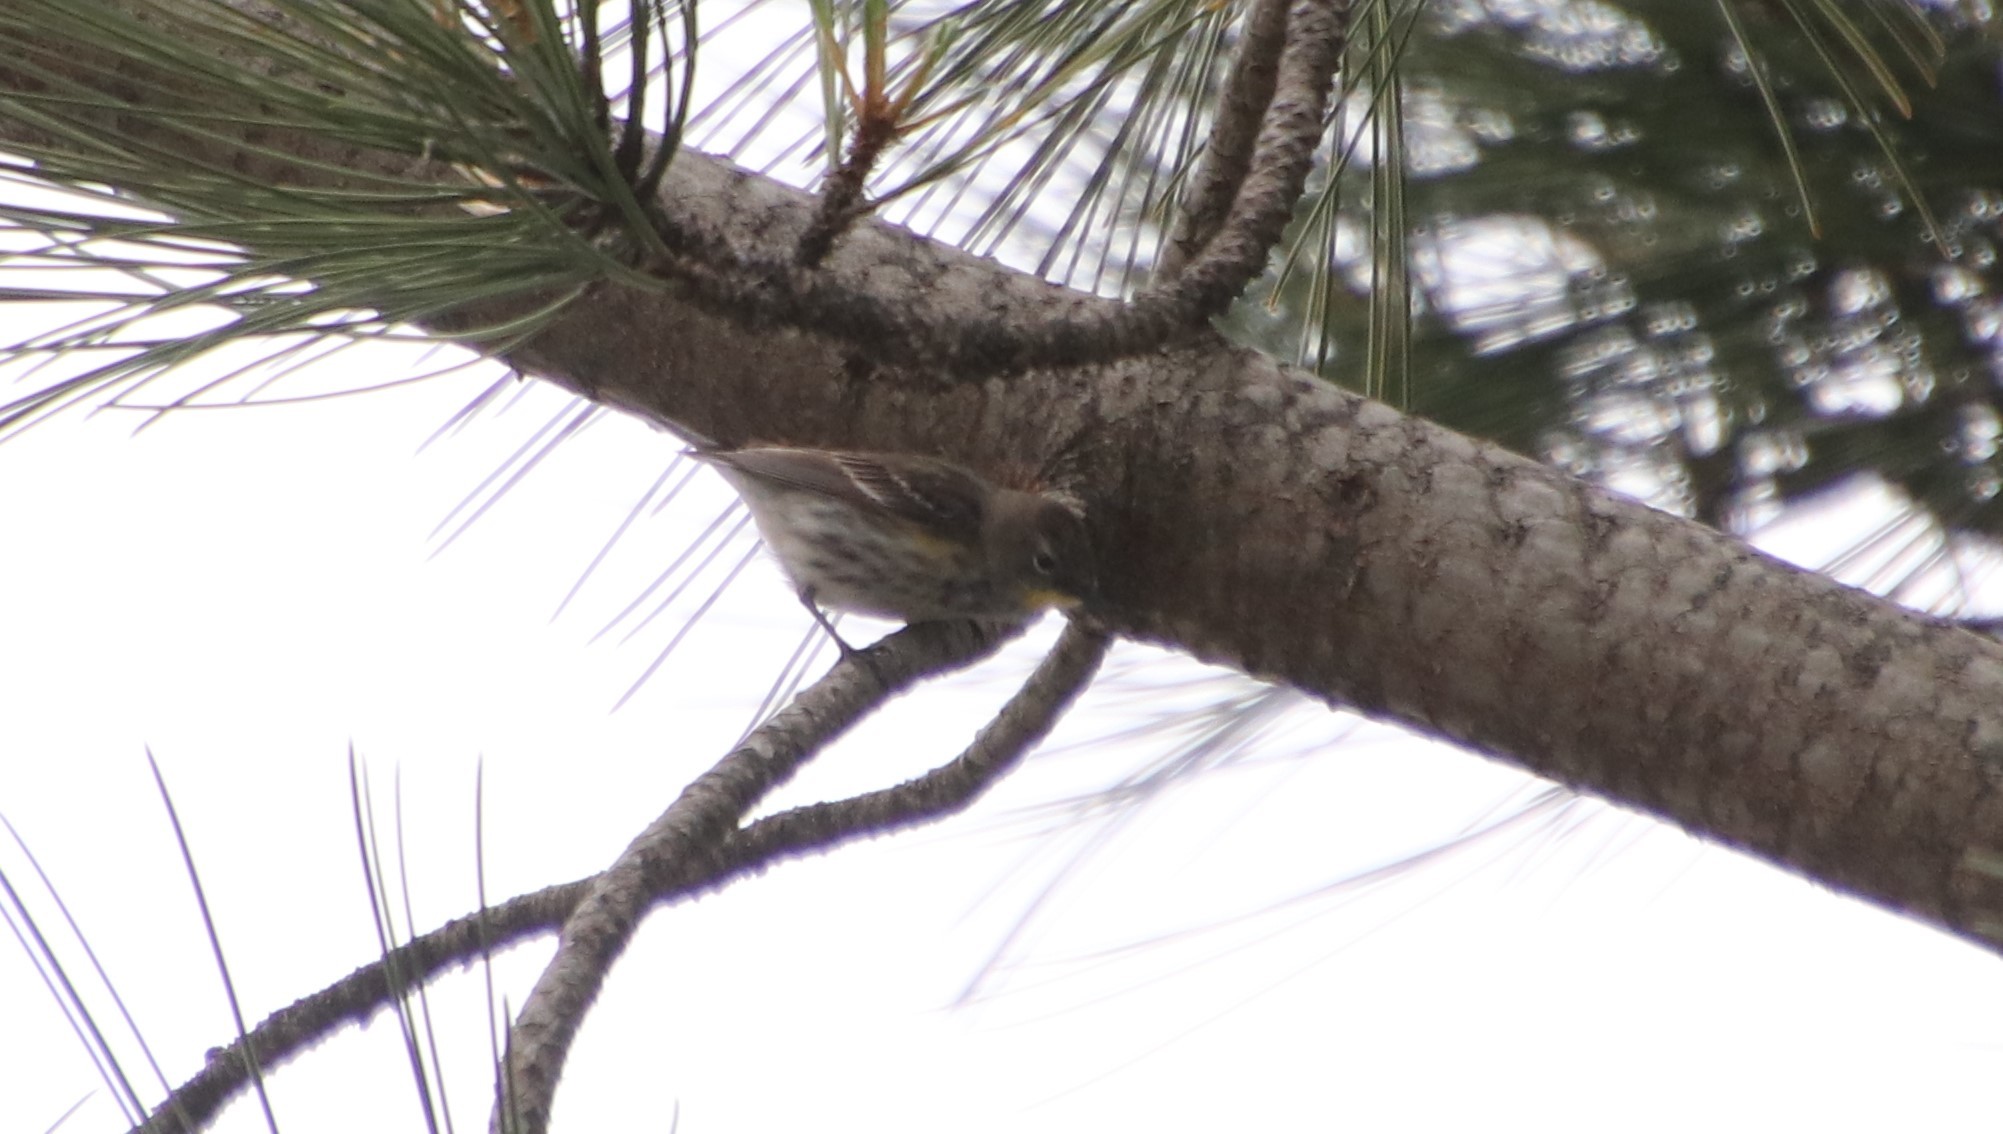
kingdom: Animalia
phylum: Chordata
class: Aves
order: Passeriformes
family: Parulidae
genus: Setophaga
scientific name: Setophaga auduboni
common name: Audubon's warbler
